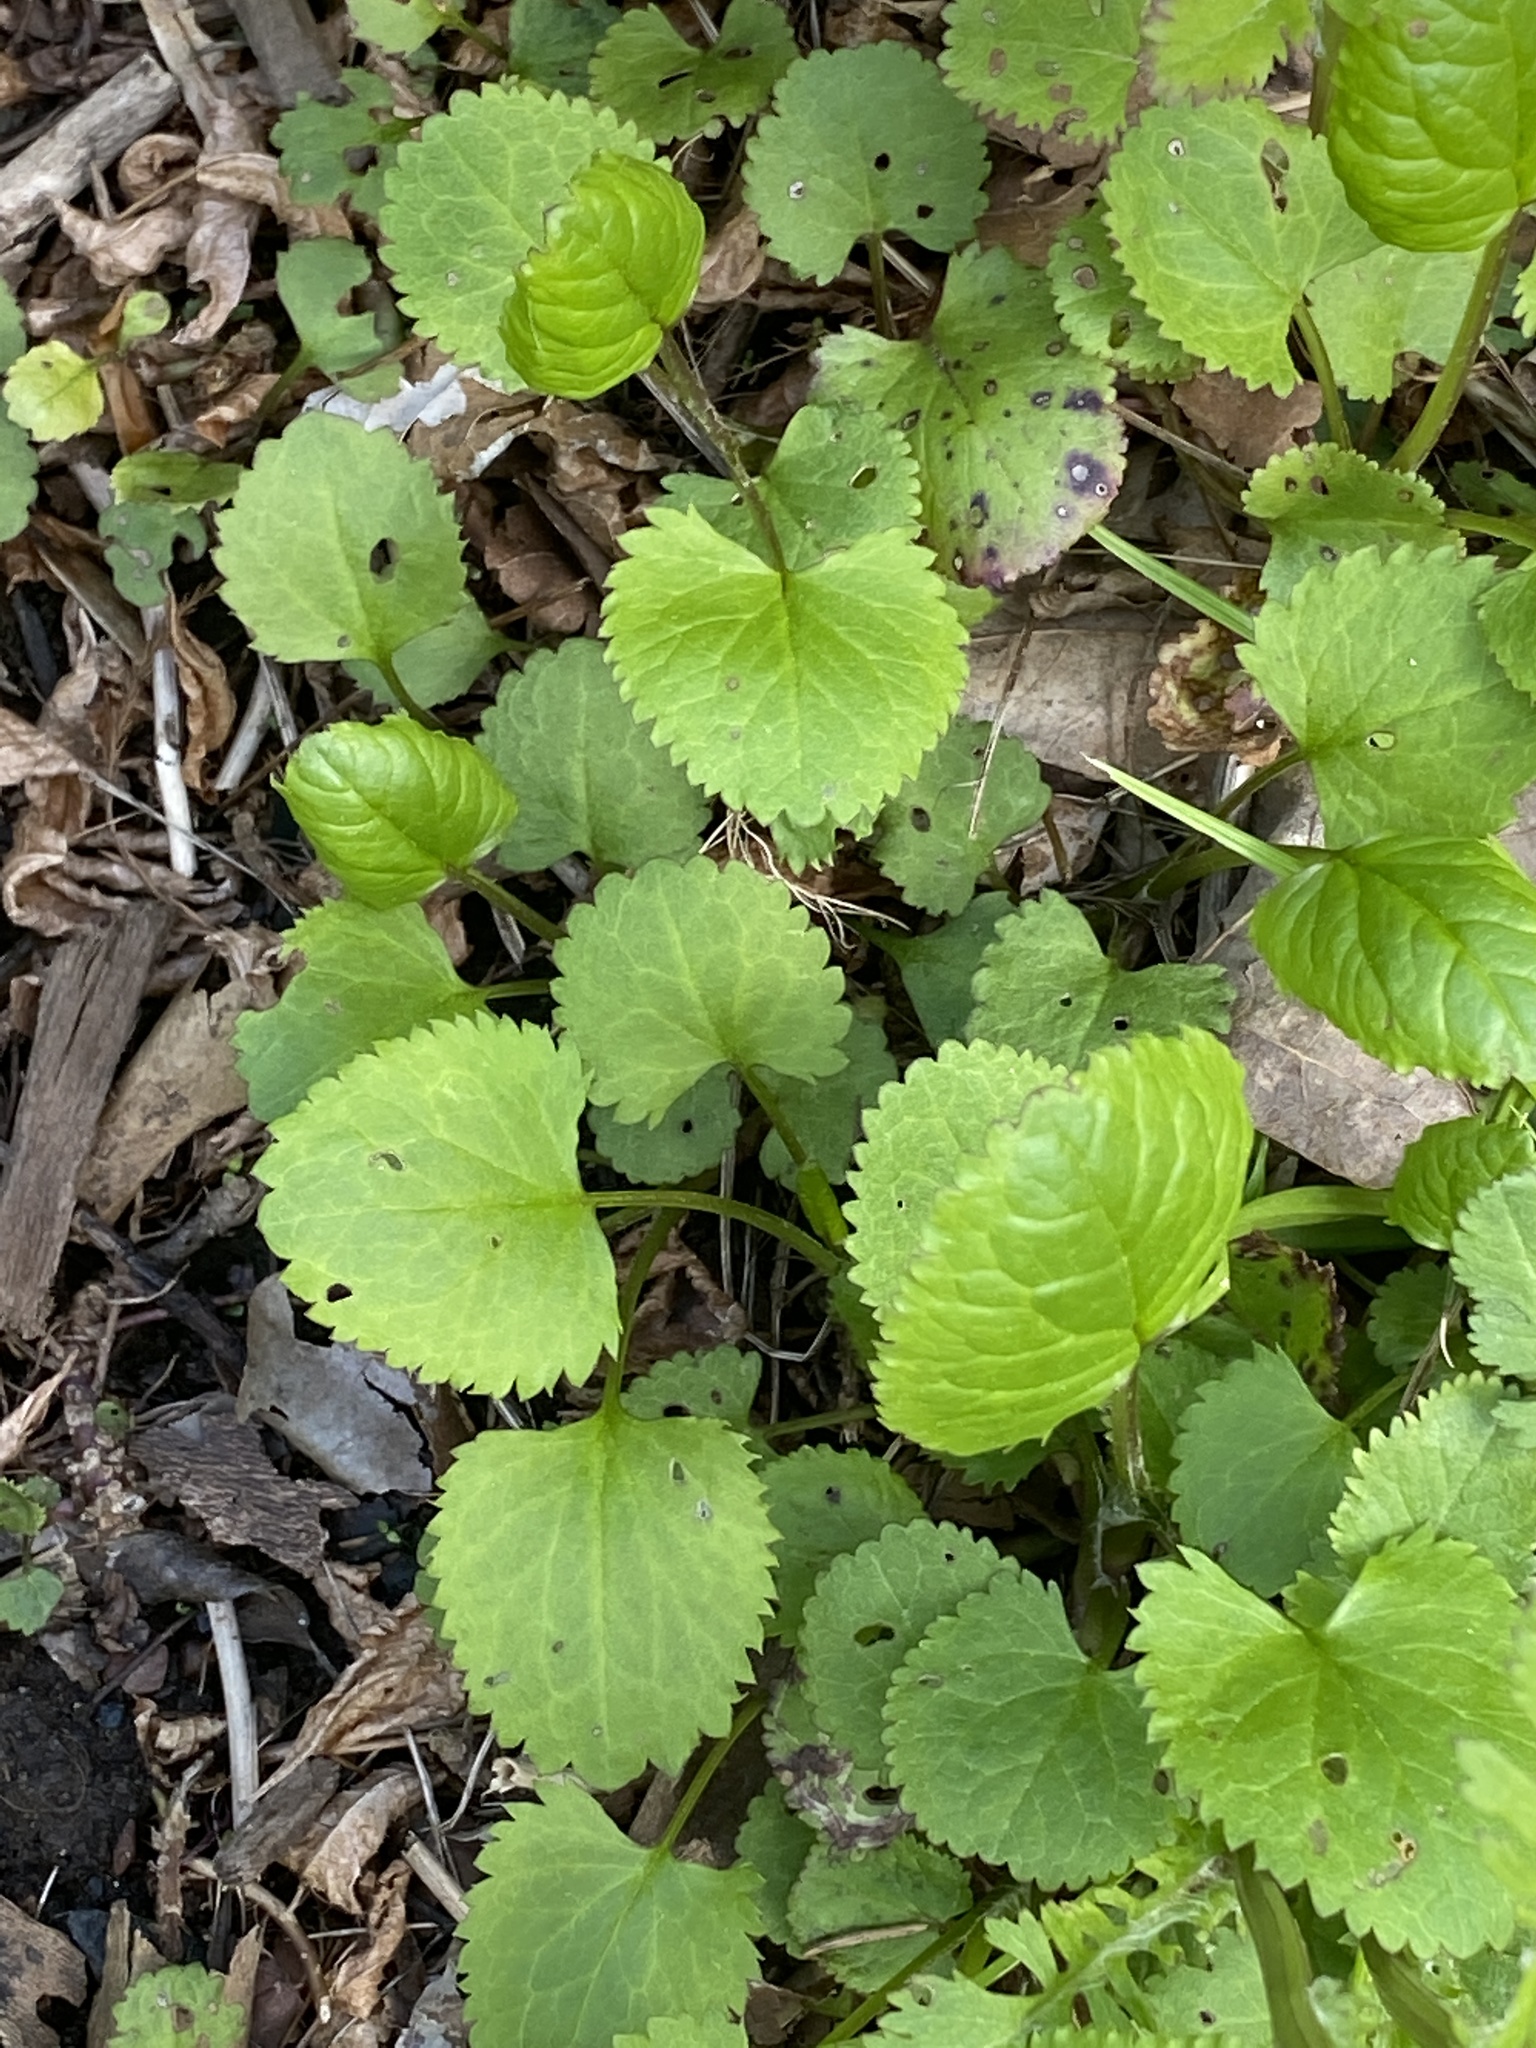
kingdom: Plantae
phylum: Tracheophyta
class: Magnoliopsida
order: Asterales
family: Asteraceae
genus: Packera
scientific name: Packera aurea
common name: Golden groundsel
